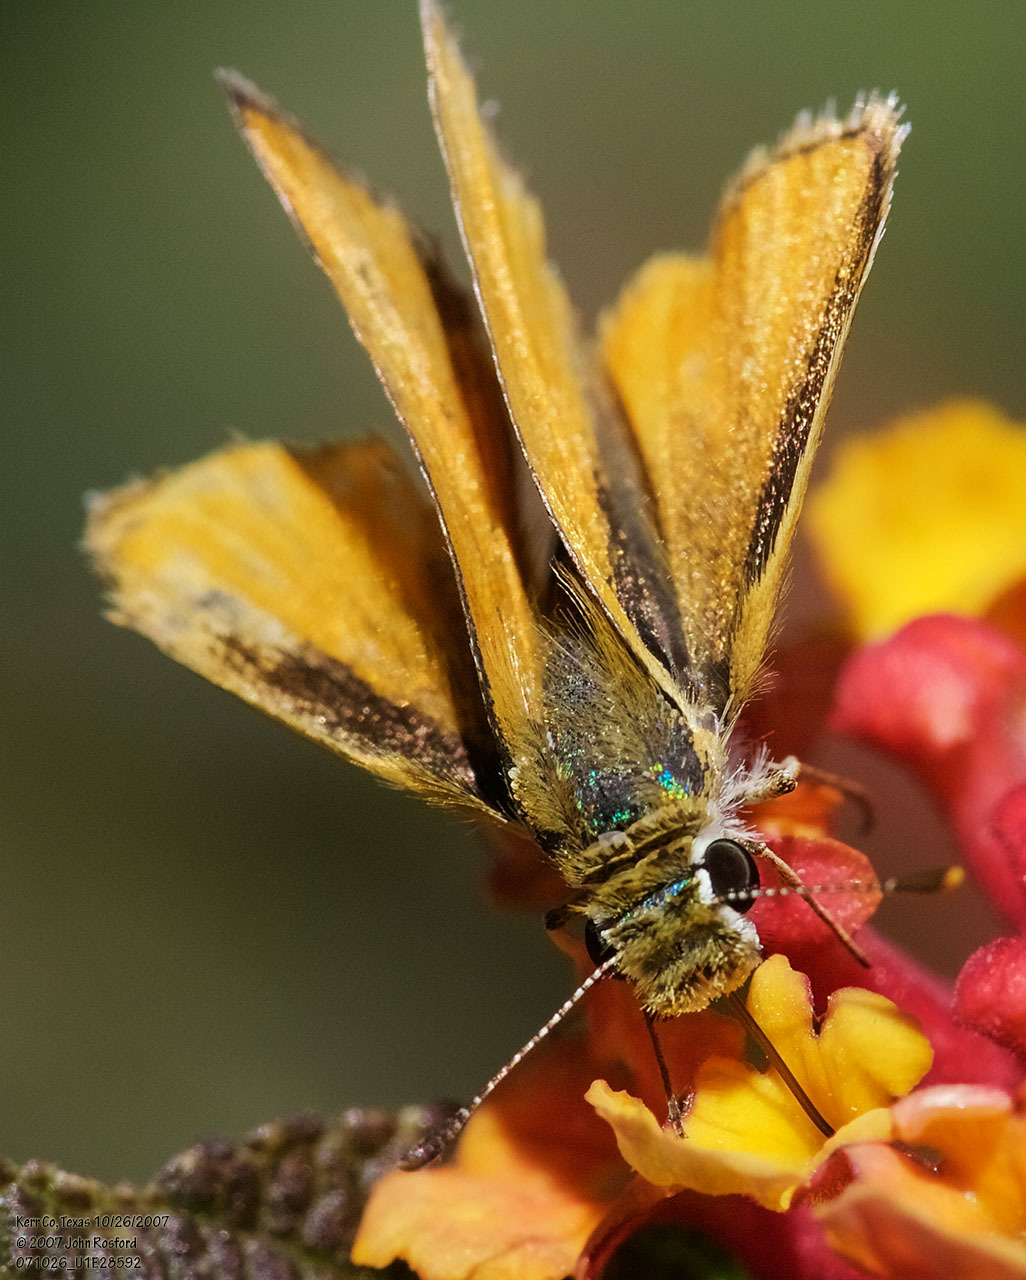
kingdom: Animalia
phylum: Arthropoda
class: Insecta
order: Lepidoptera
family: Hesperiidae
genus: Copaeodes
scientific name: Copaeodes aurantiaca
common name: Orange skipperling
